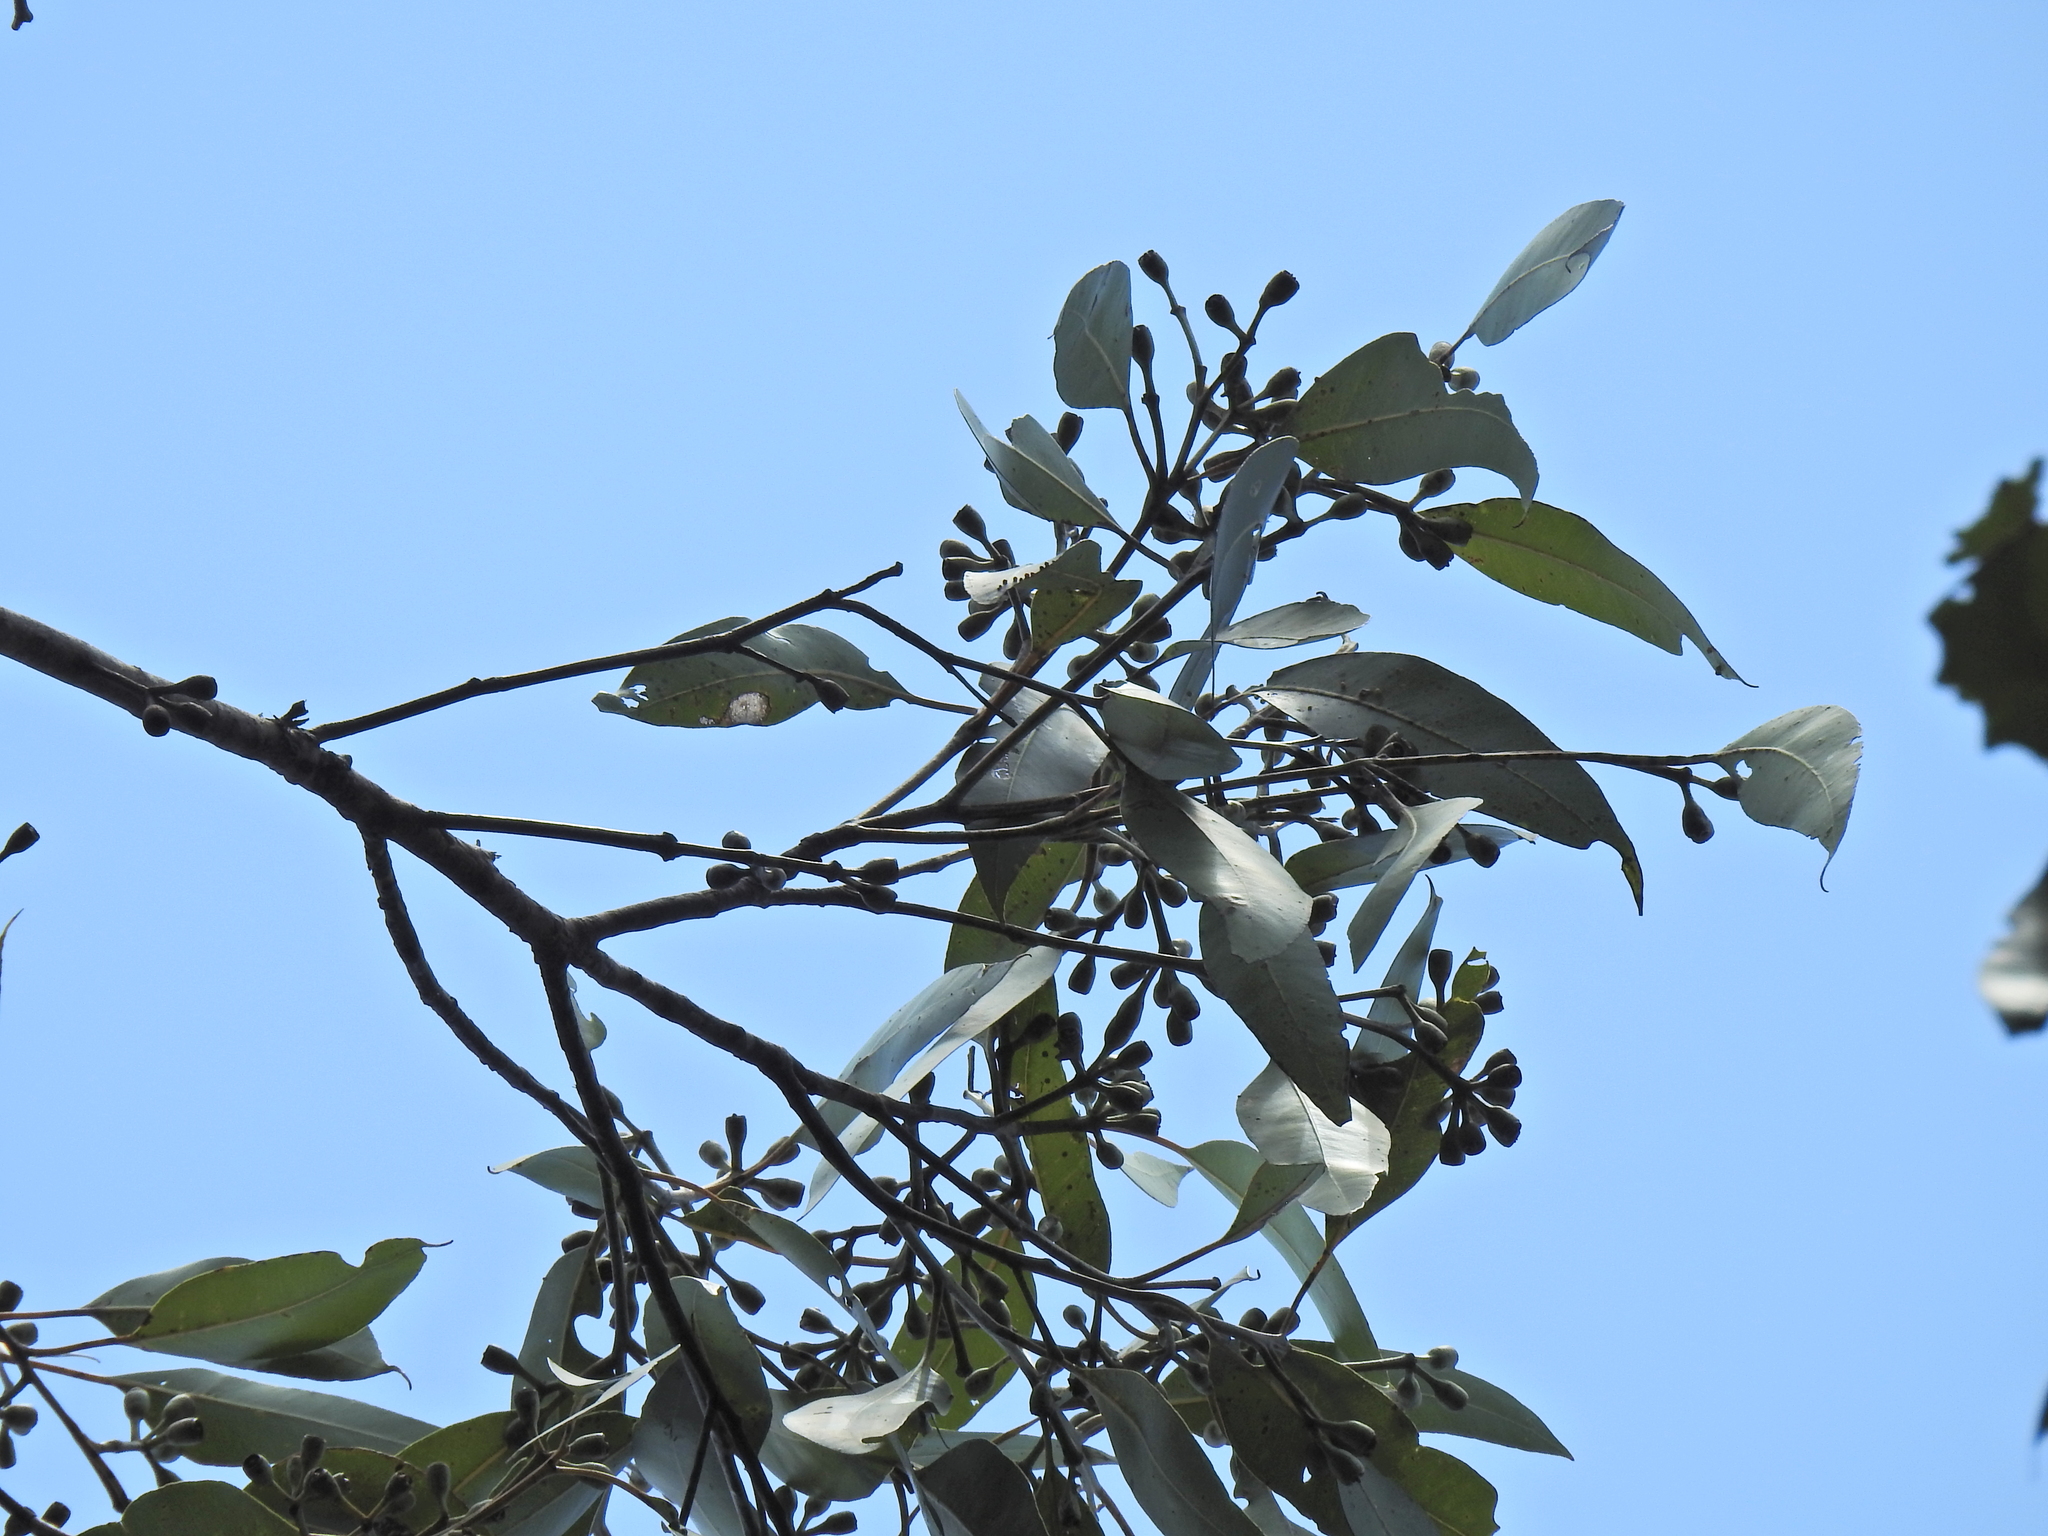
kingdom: Plantae
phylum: Tracheophyta
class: Magnoliopsida
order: Myrtales
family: Myrtaceae
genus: Eucalyptus
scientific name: Eucalyptus robusta
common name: Swampmahogany
